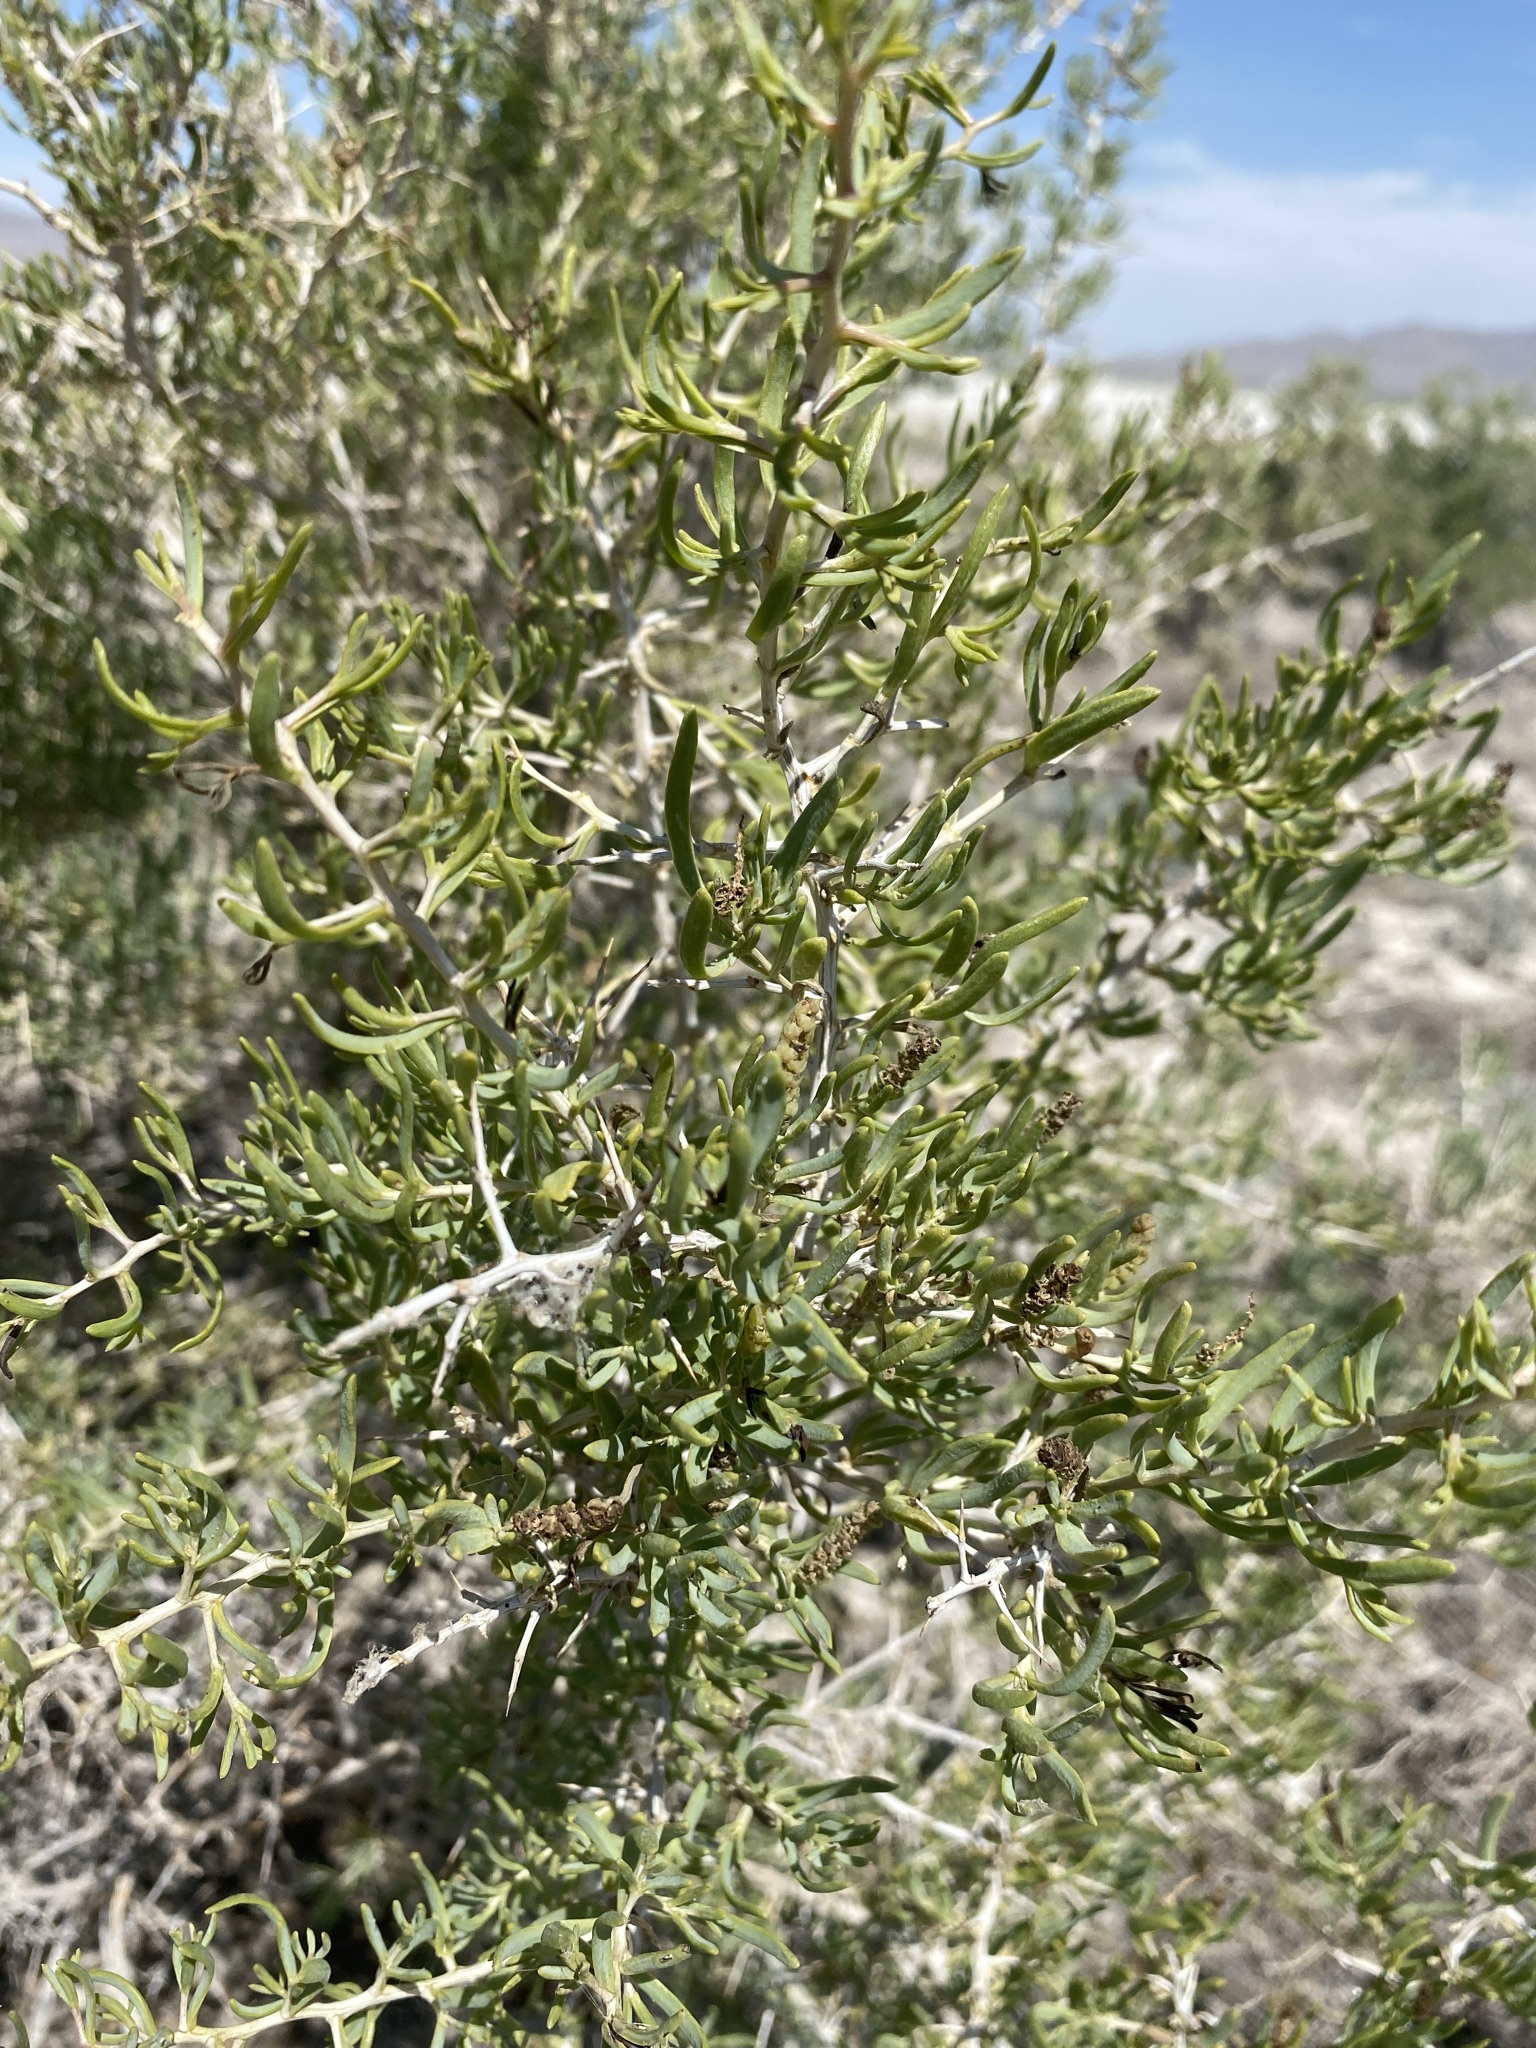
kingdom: Plantae
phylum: Tracheophyta
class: Magnoliopsida
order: Caryophyllales
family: Sarcobataceae
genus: Sarcobatus
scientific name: Sarcobatus vermiculatus
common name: Greasewood
